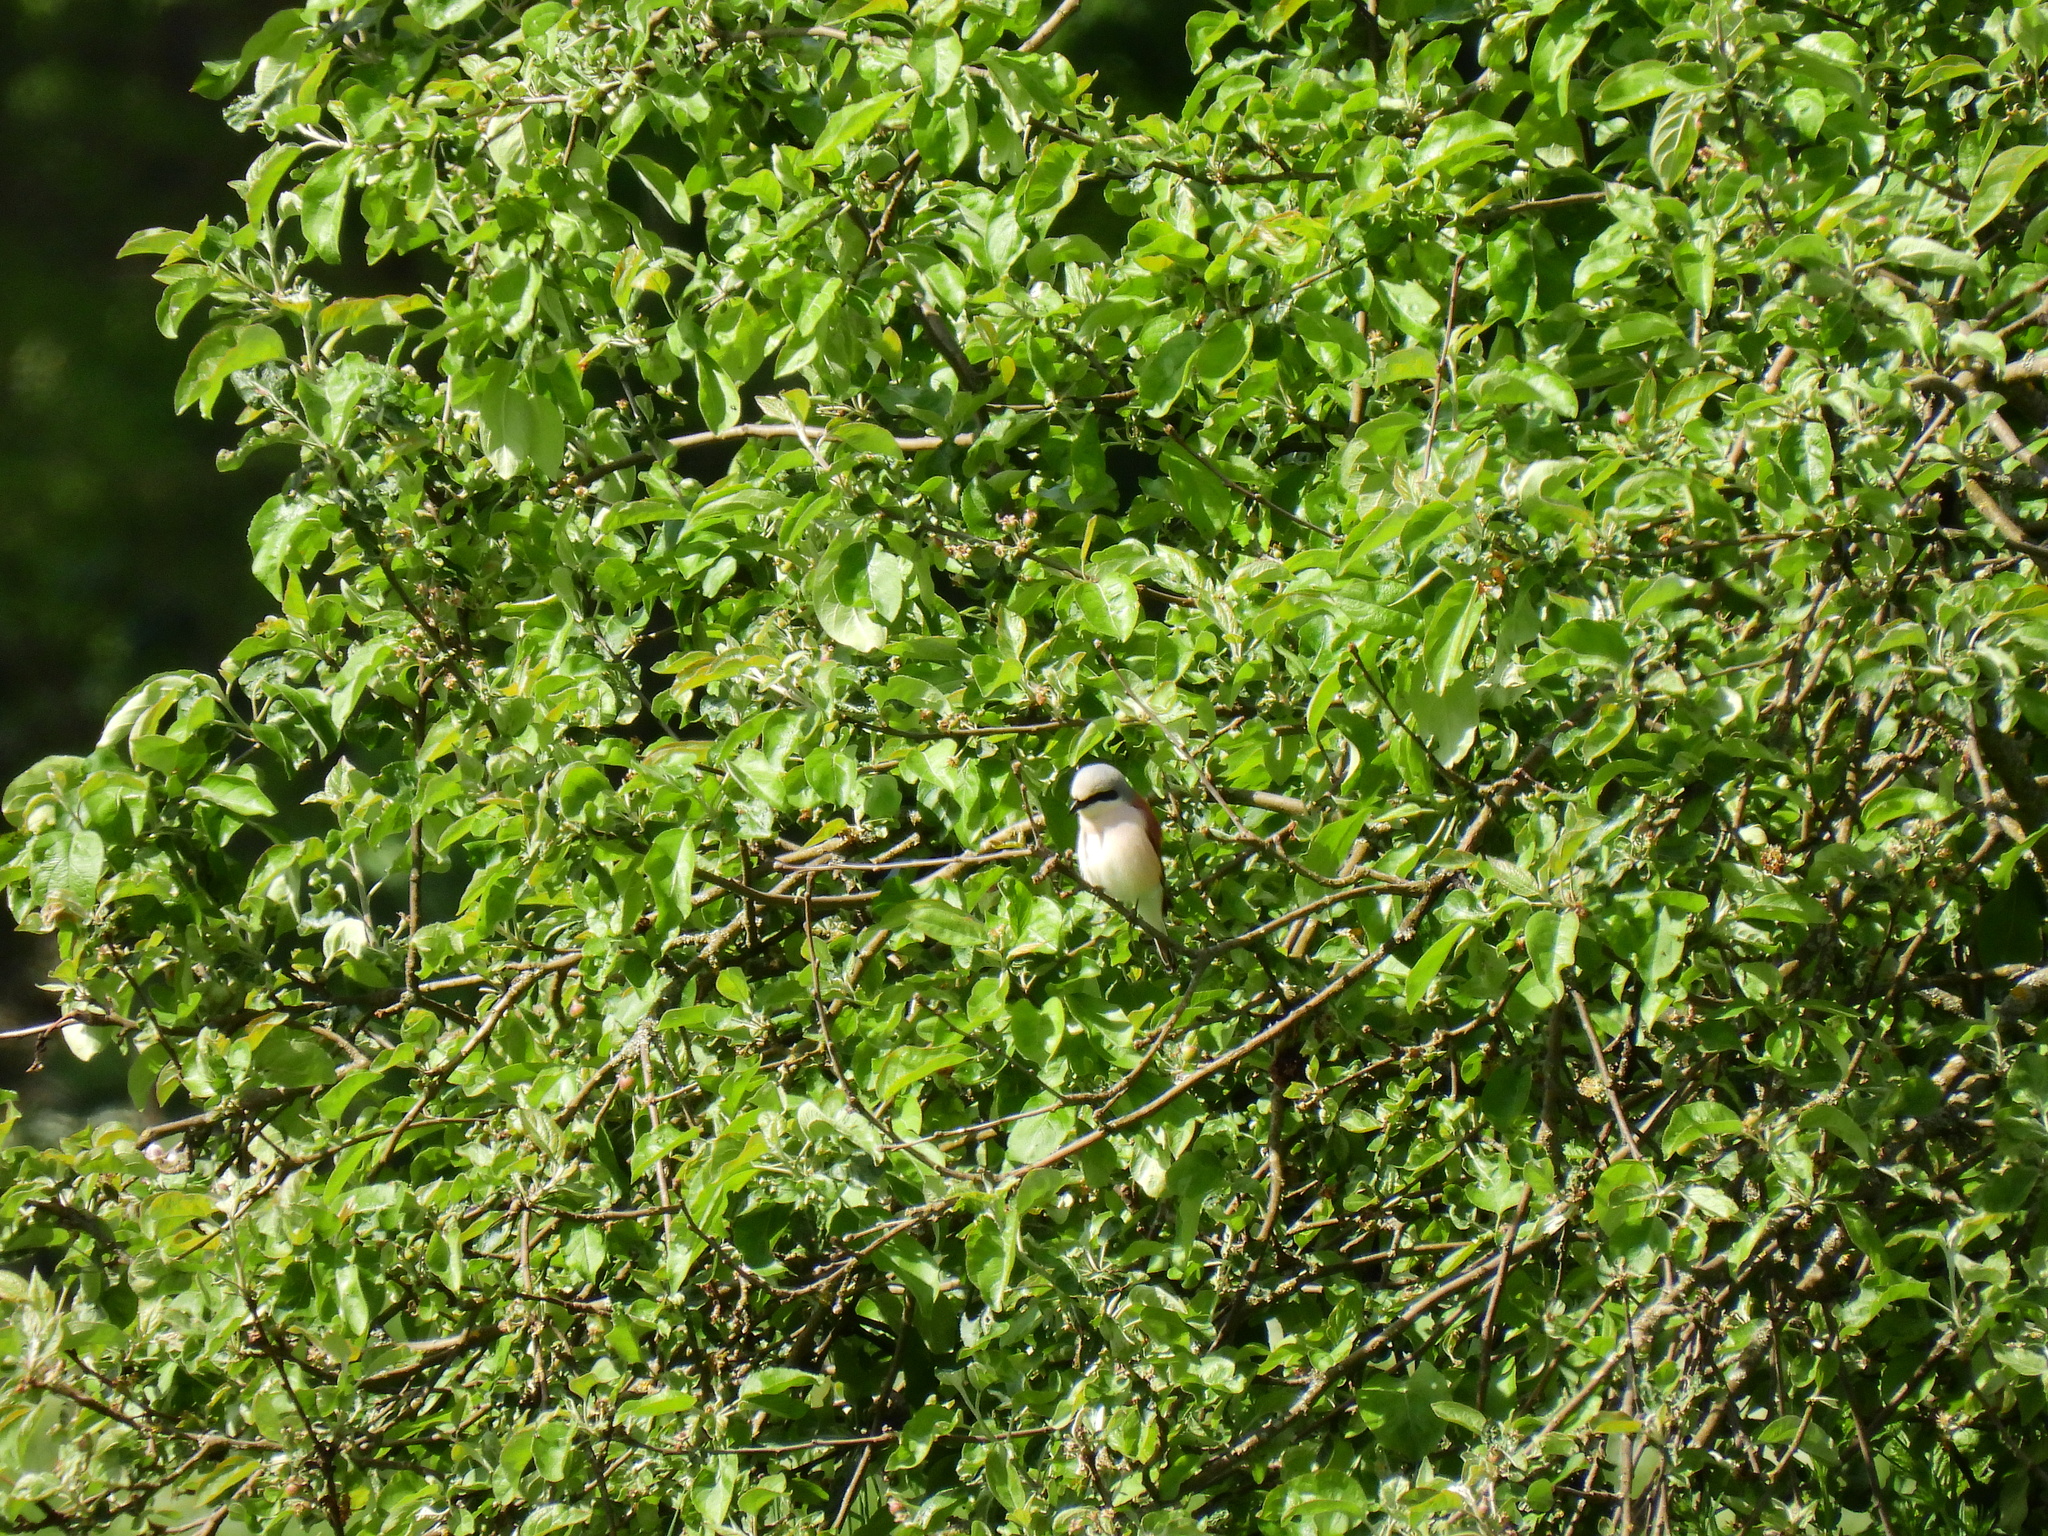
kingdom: Animalia
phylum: Chordata
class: Aves
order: Passeriformes
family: Laniidae
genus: Lanius
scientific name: Lanius collurio
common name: Red-backed shrike
